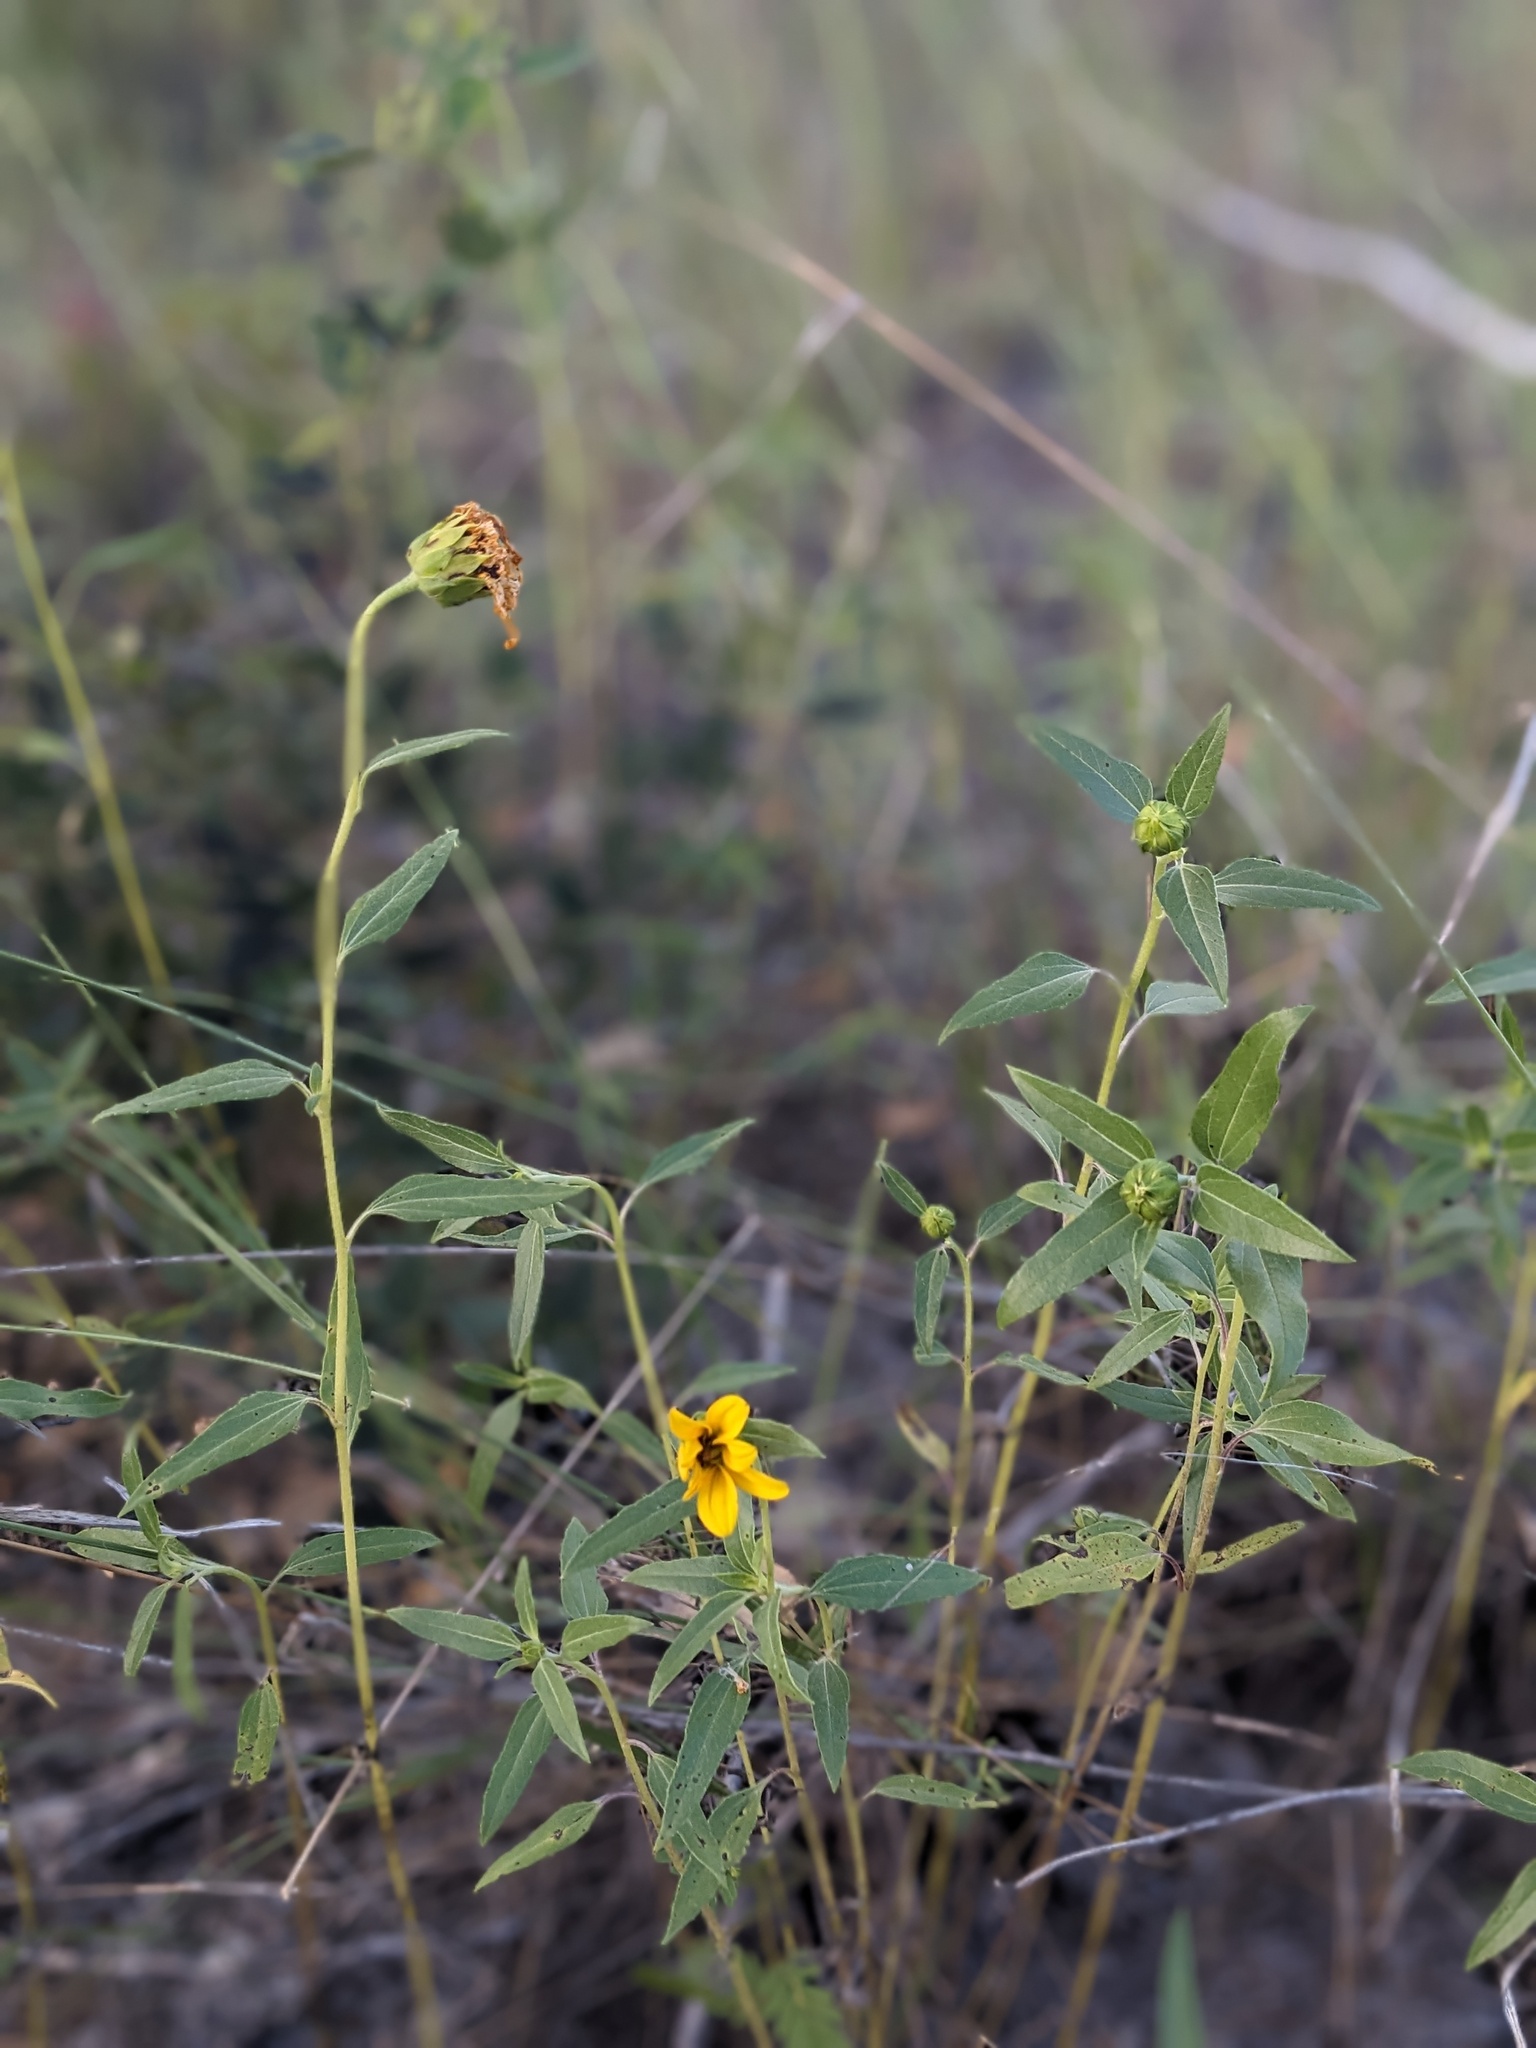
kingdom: Plantae
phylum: Tracheophyta
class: Magnoliopsida
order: Asterales
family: Asteraceae
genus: Helianthus
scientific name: Helianthus petiolaris
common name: Lesser sunflower
